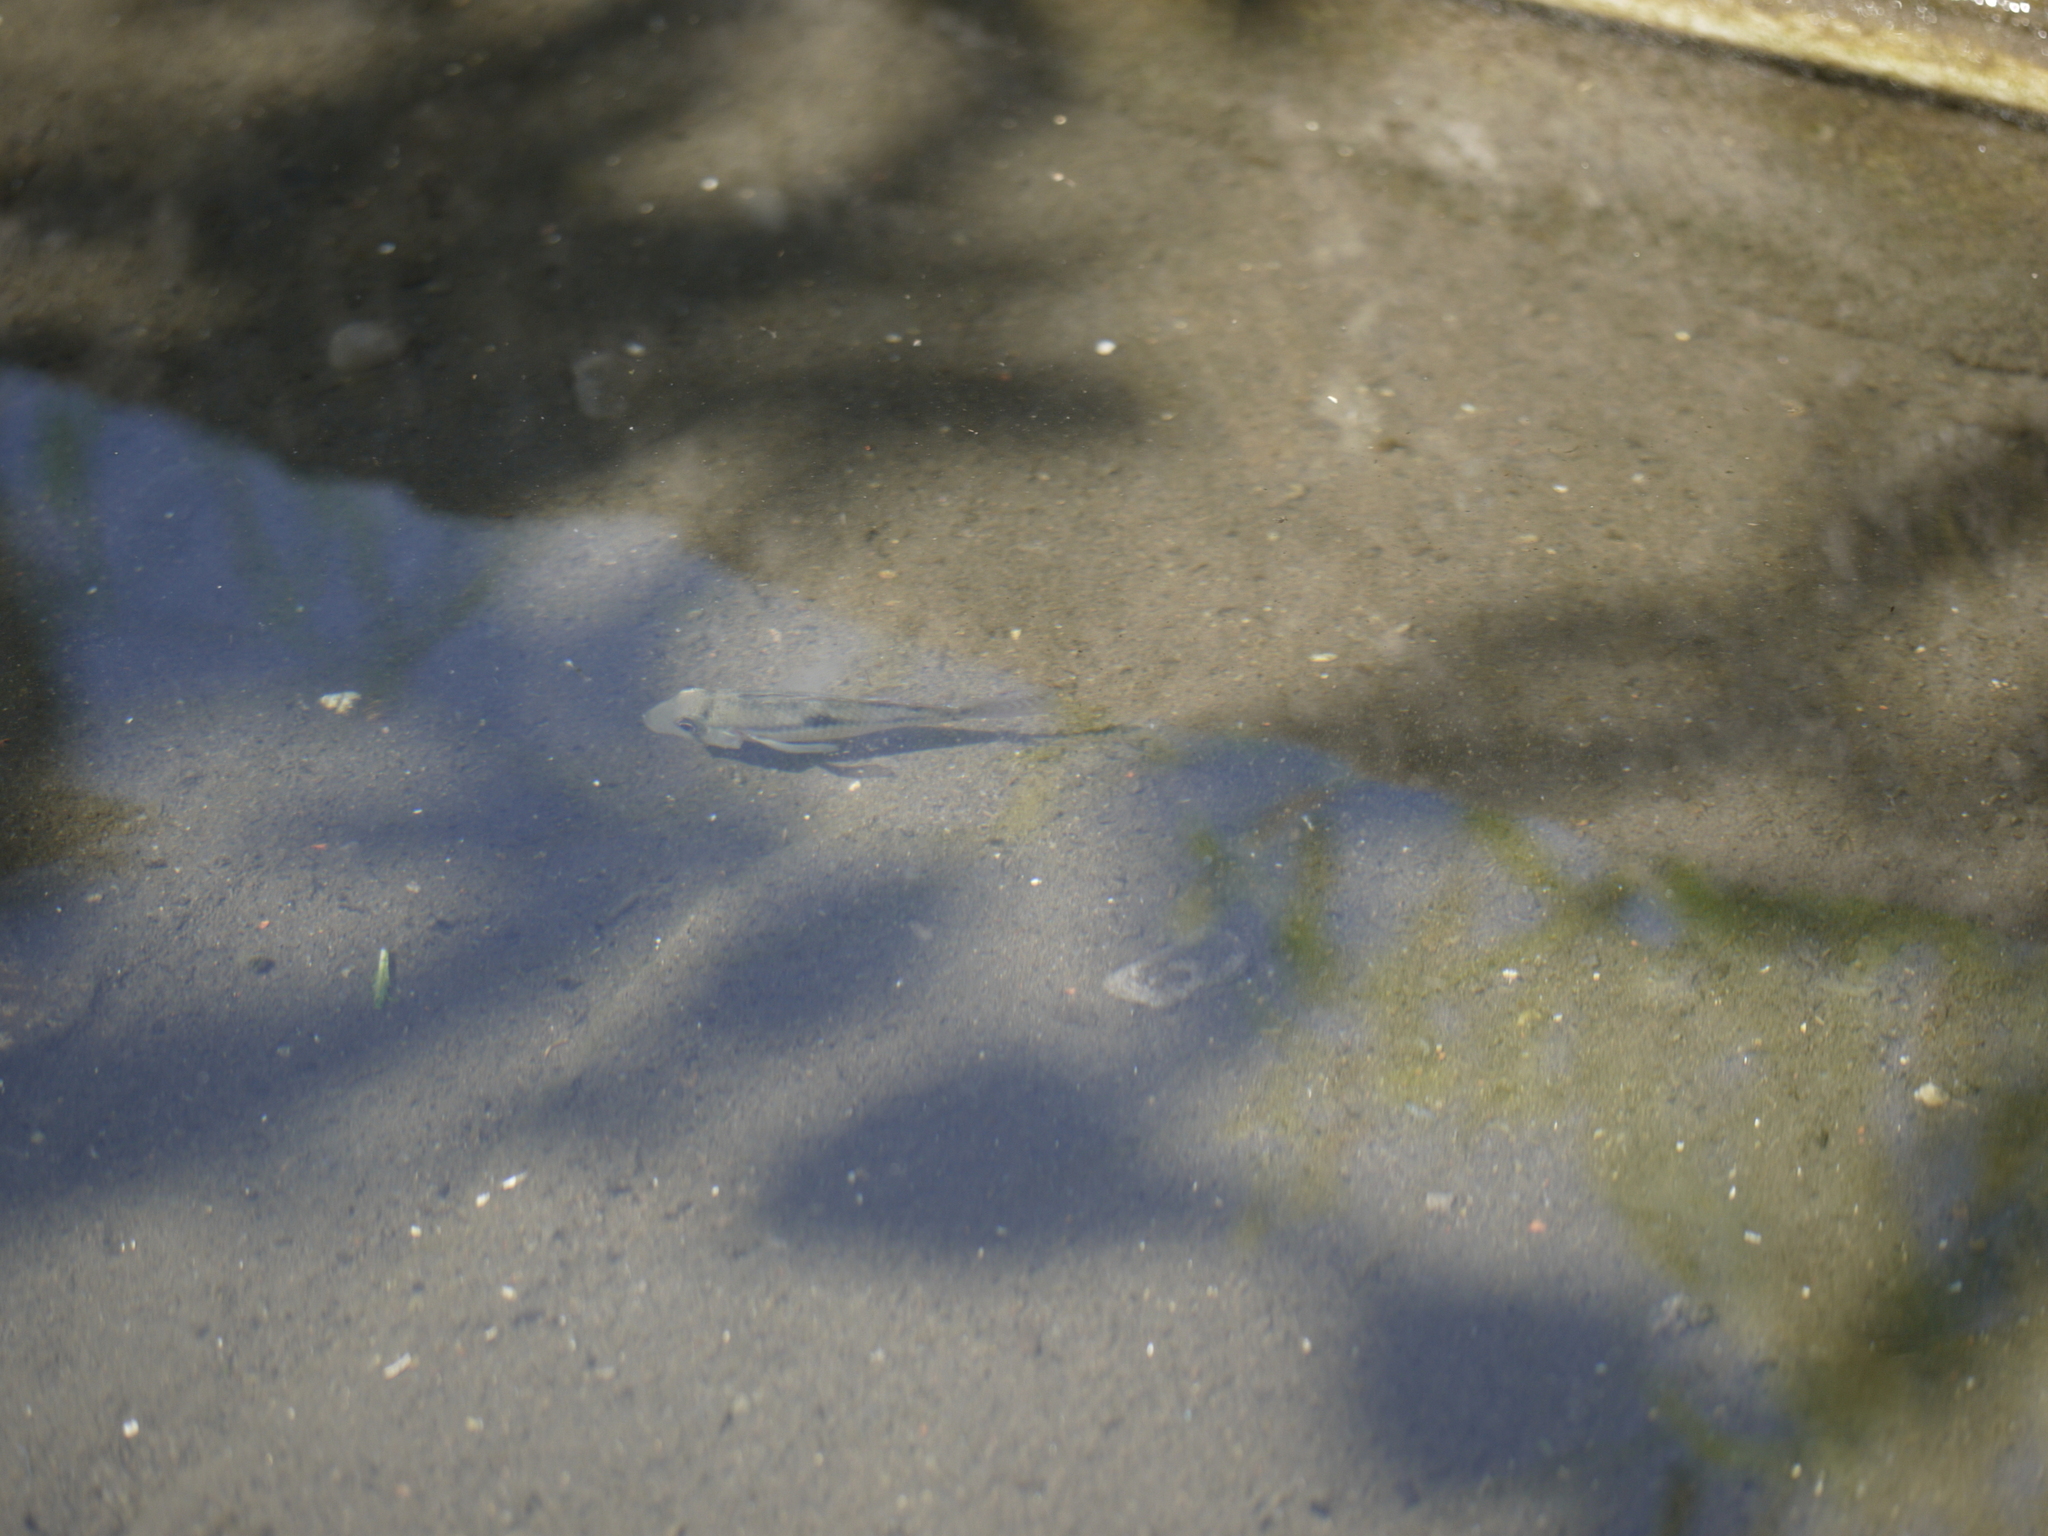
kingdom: Animalia
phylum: Chordata
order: Perciformes
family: Cichlidae
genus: Geophagus
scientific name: Geophagus brasiliensis
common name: Braziliensis
